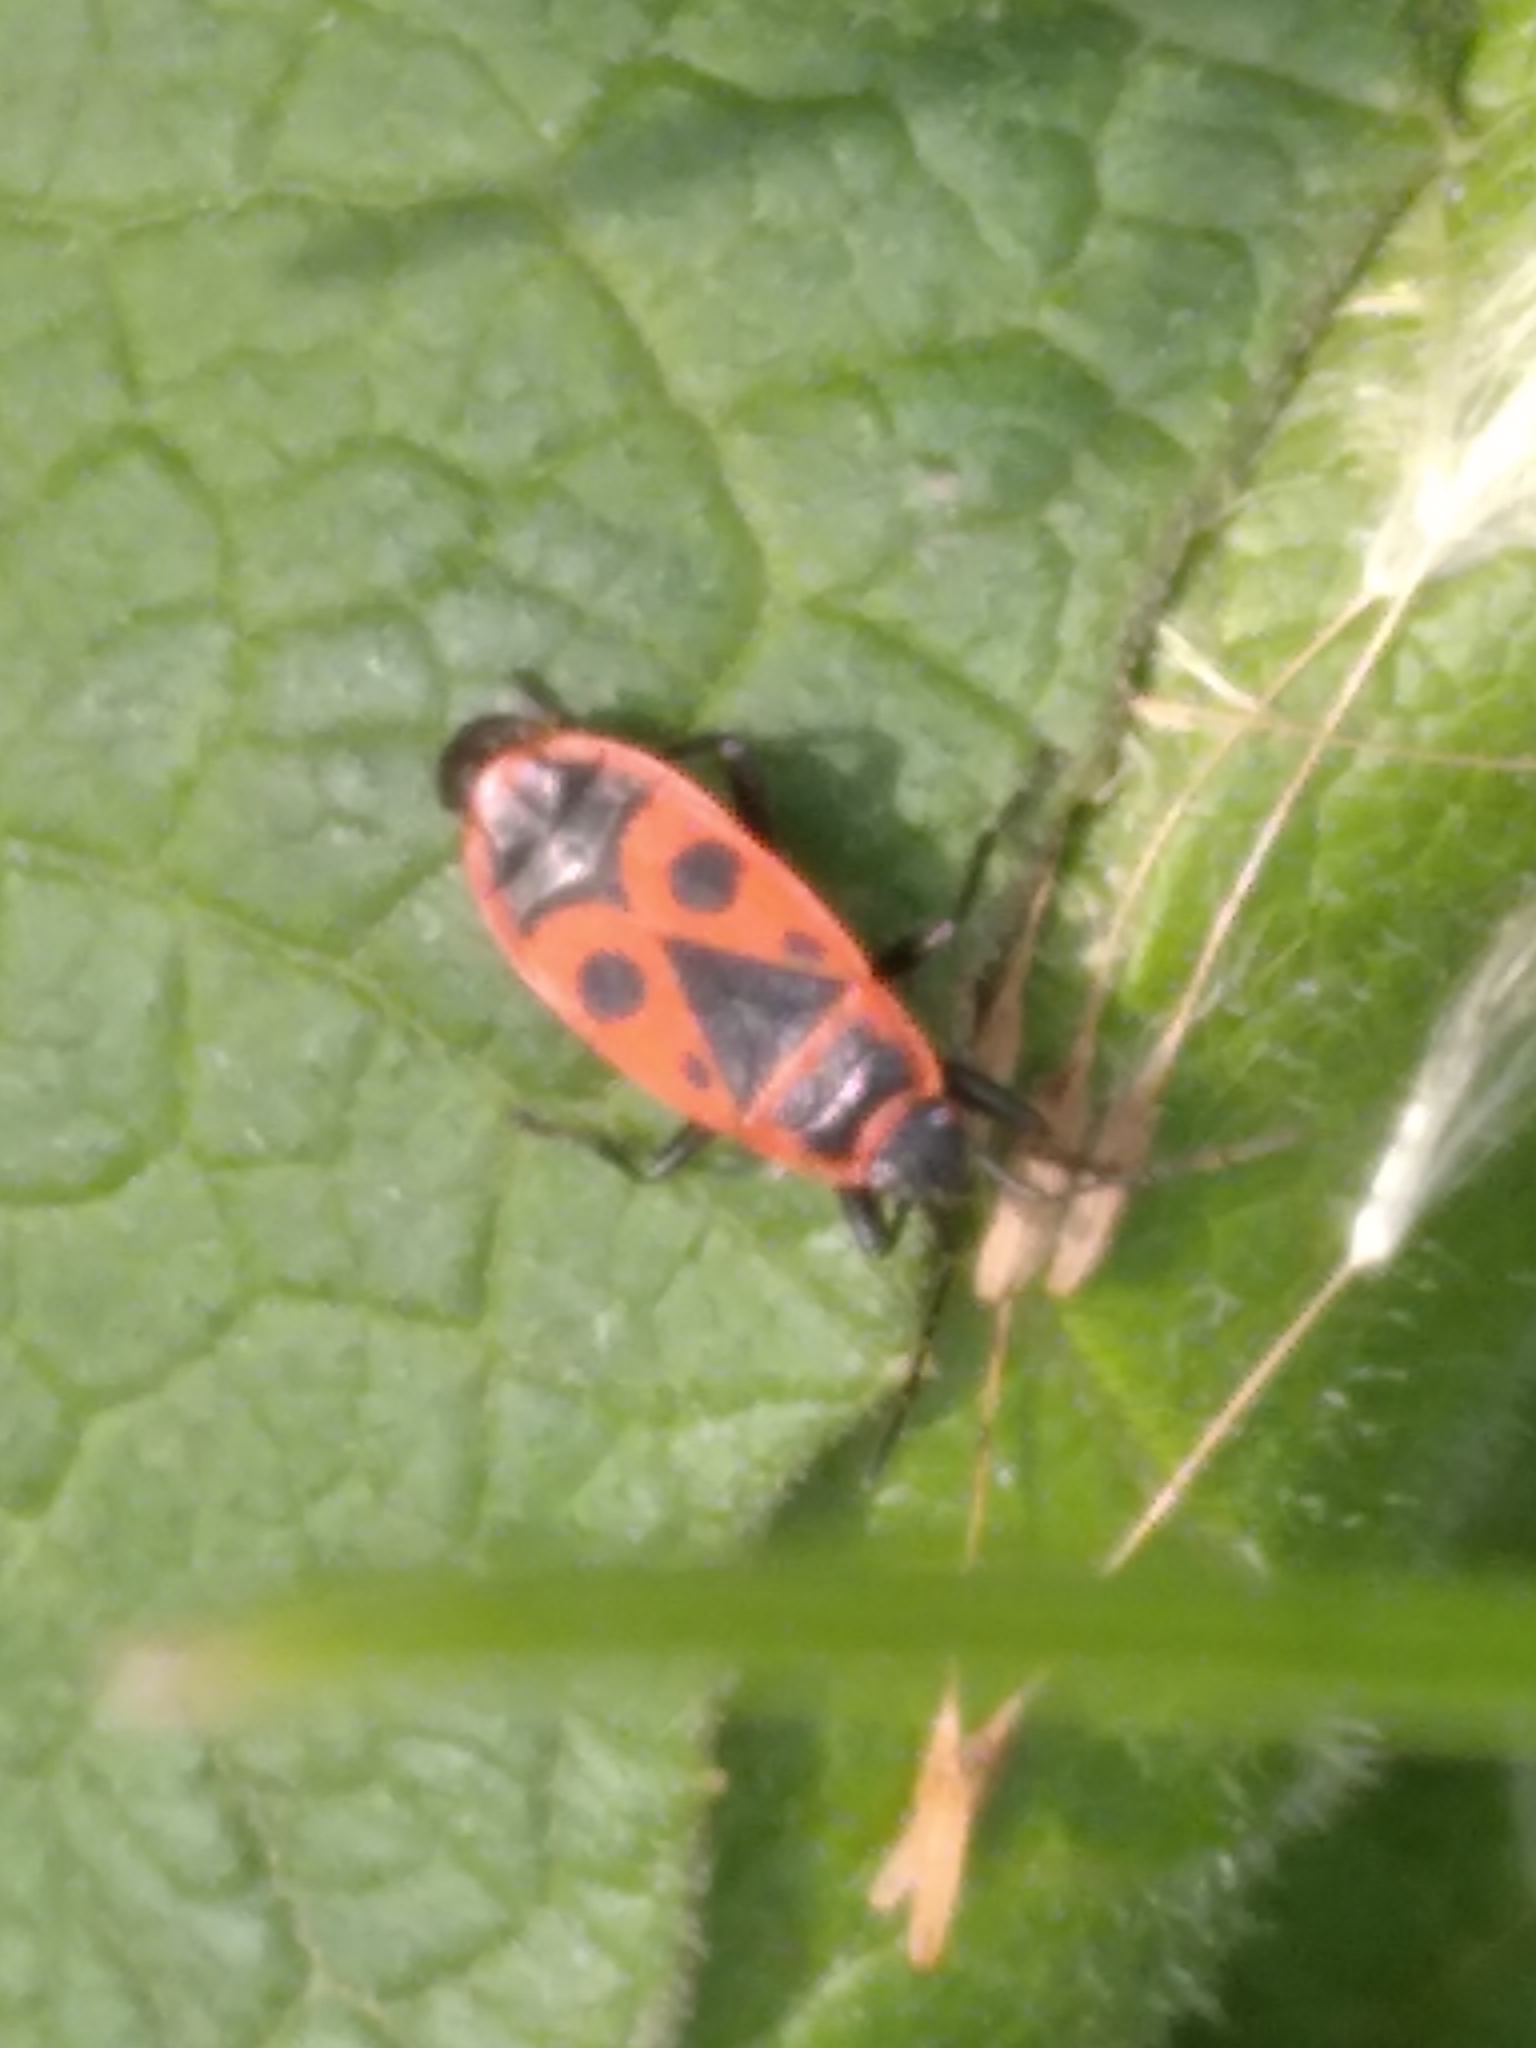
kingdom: Animalia
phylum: Arthropoda
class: Insecta
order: Hemiptera
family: Pyrrhocoridae
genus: Pyrrhocoris
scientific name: Pyrrhocoris apterus
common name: Firebug
